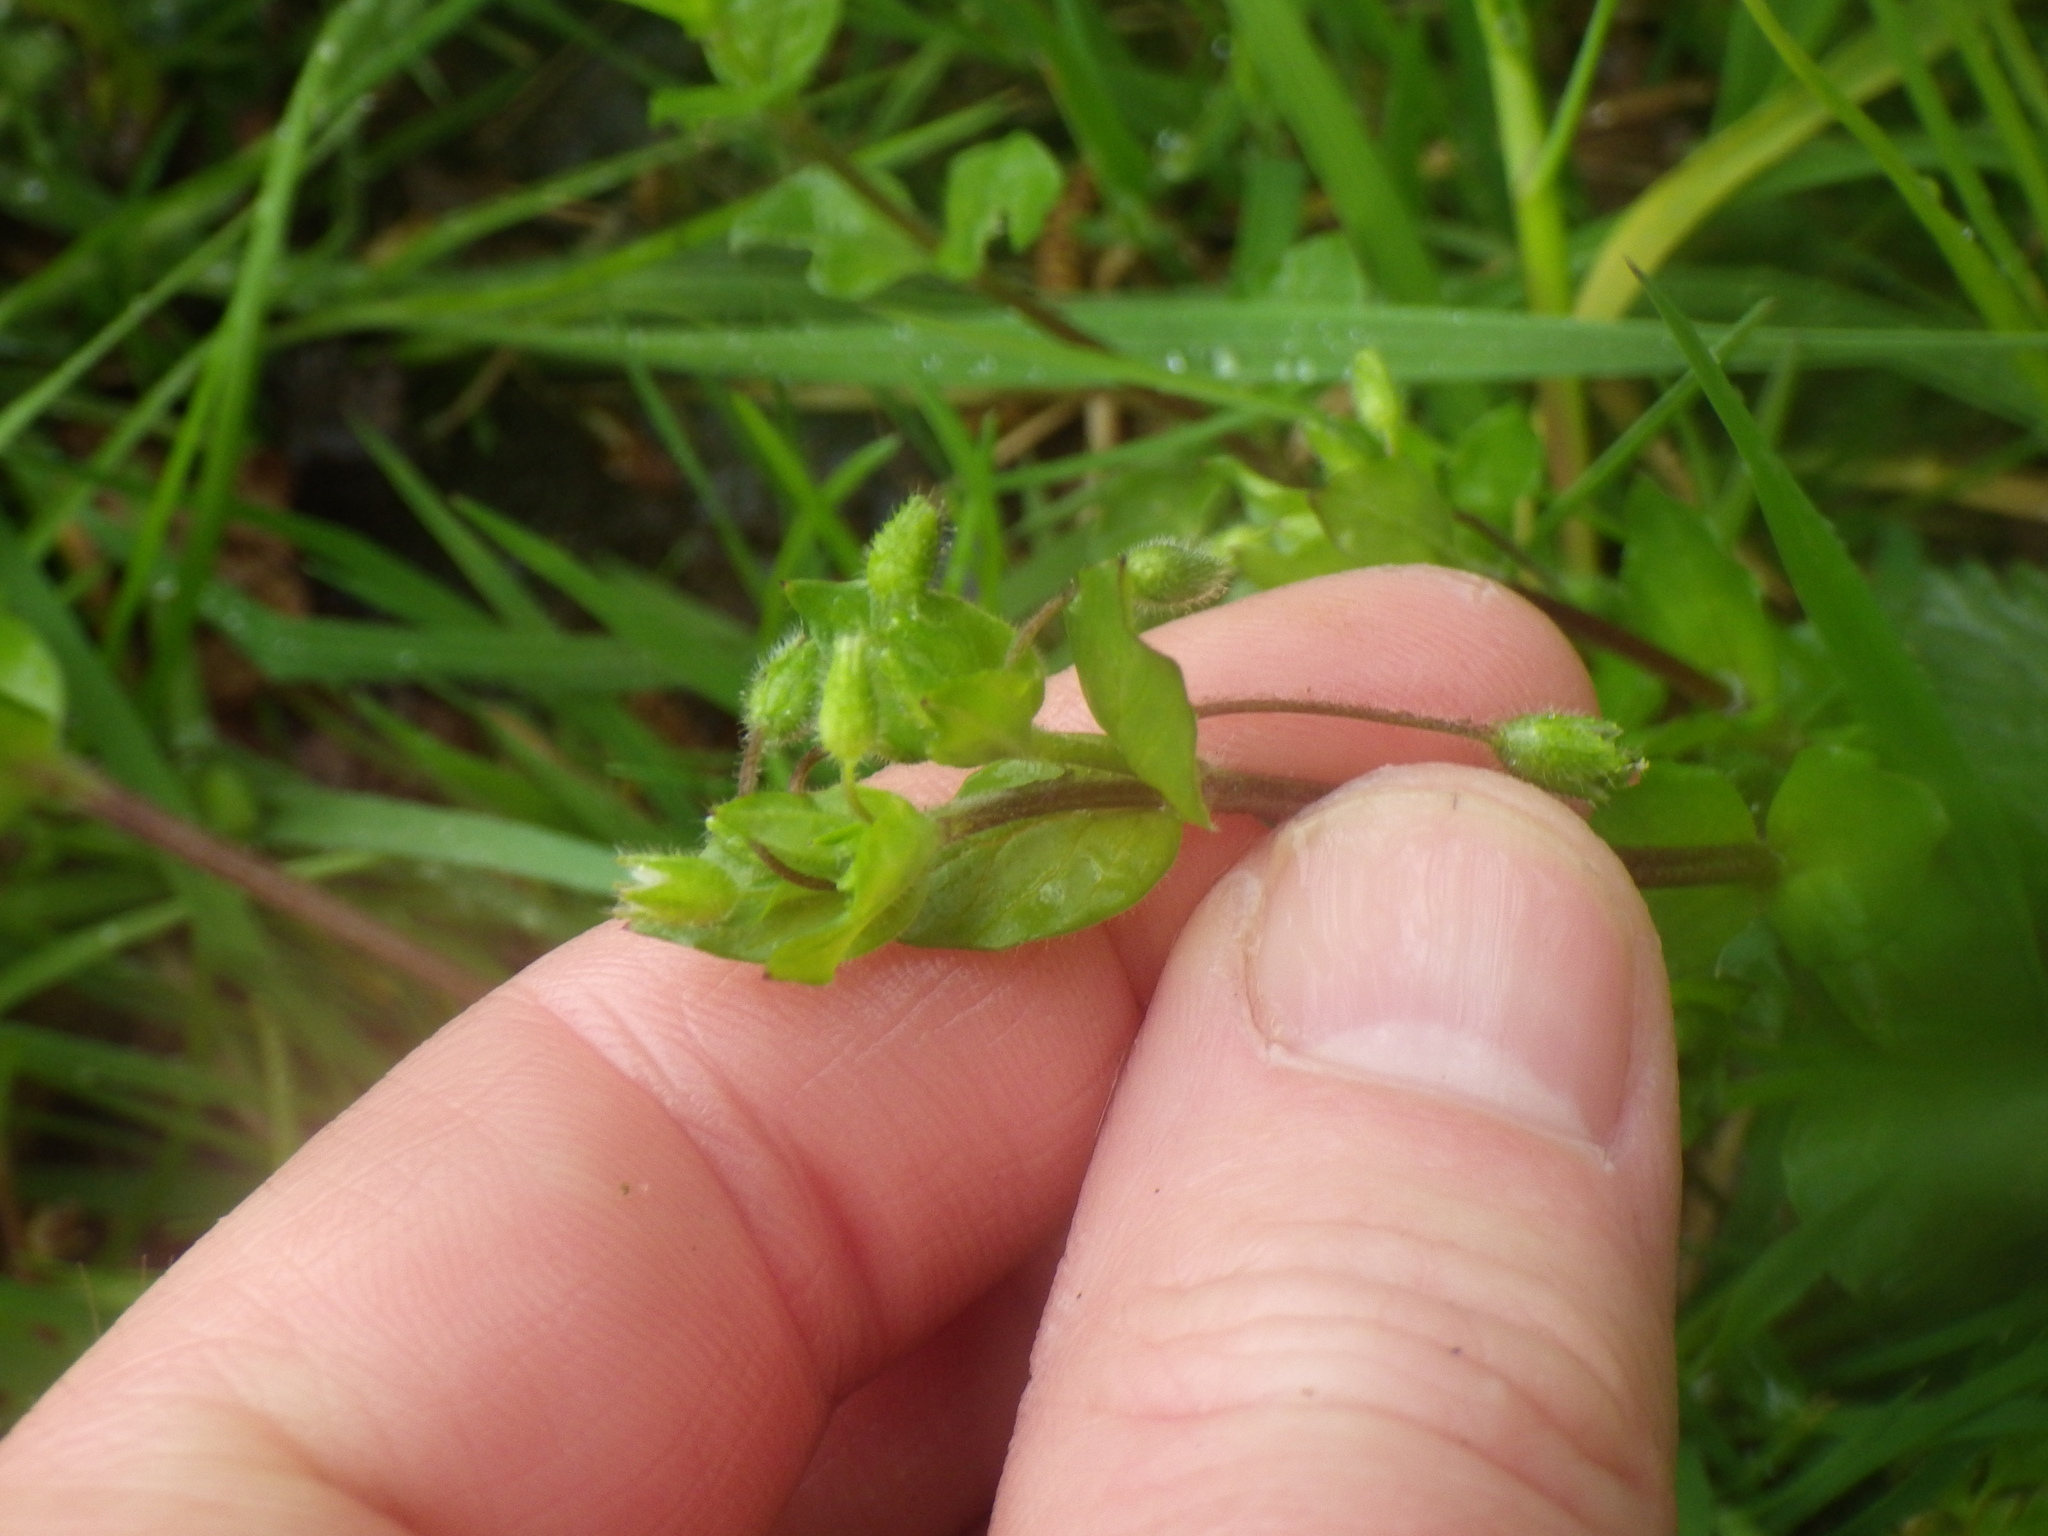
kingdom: Plantae
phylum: Tracheophyta
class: Magnoliopsida
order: Caryophyllales
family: Caryophyllaceae
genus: Stellaria
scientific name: Stellaria media
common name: Common chickweed
